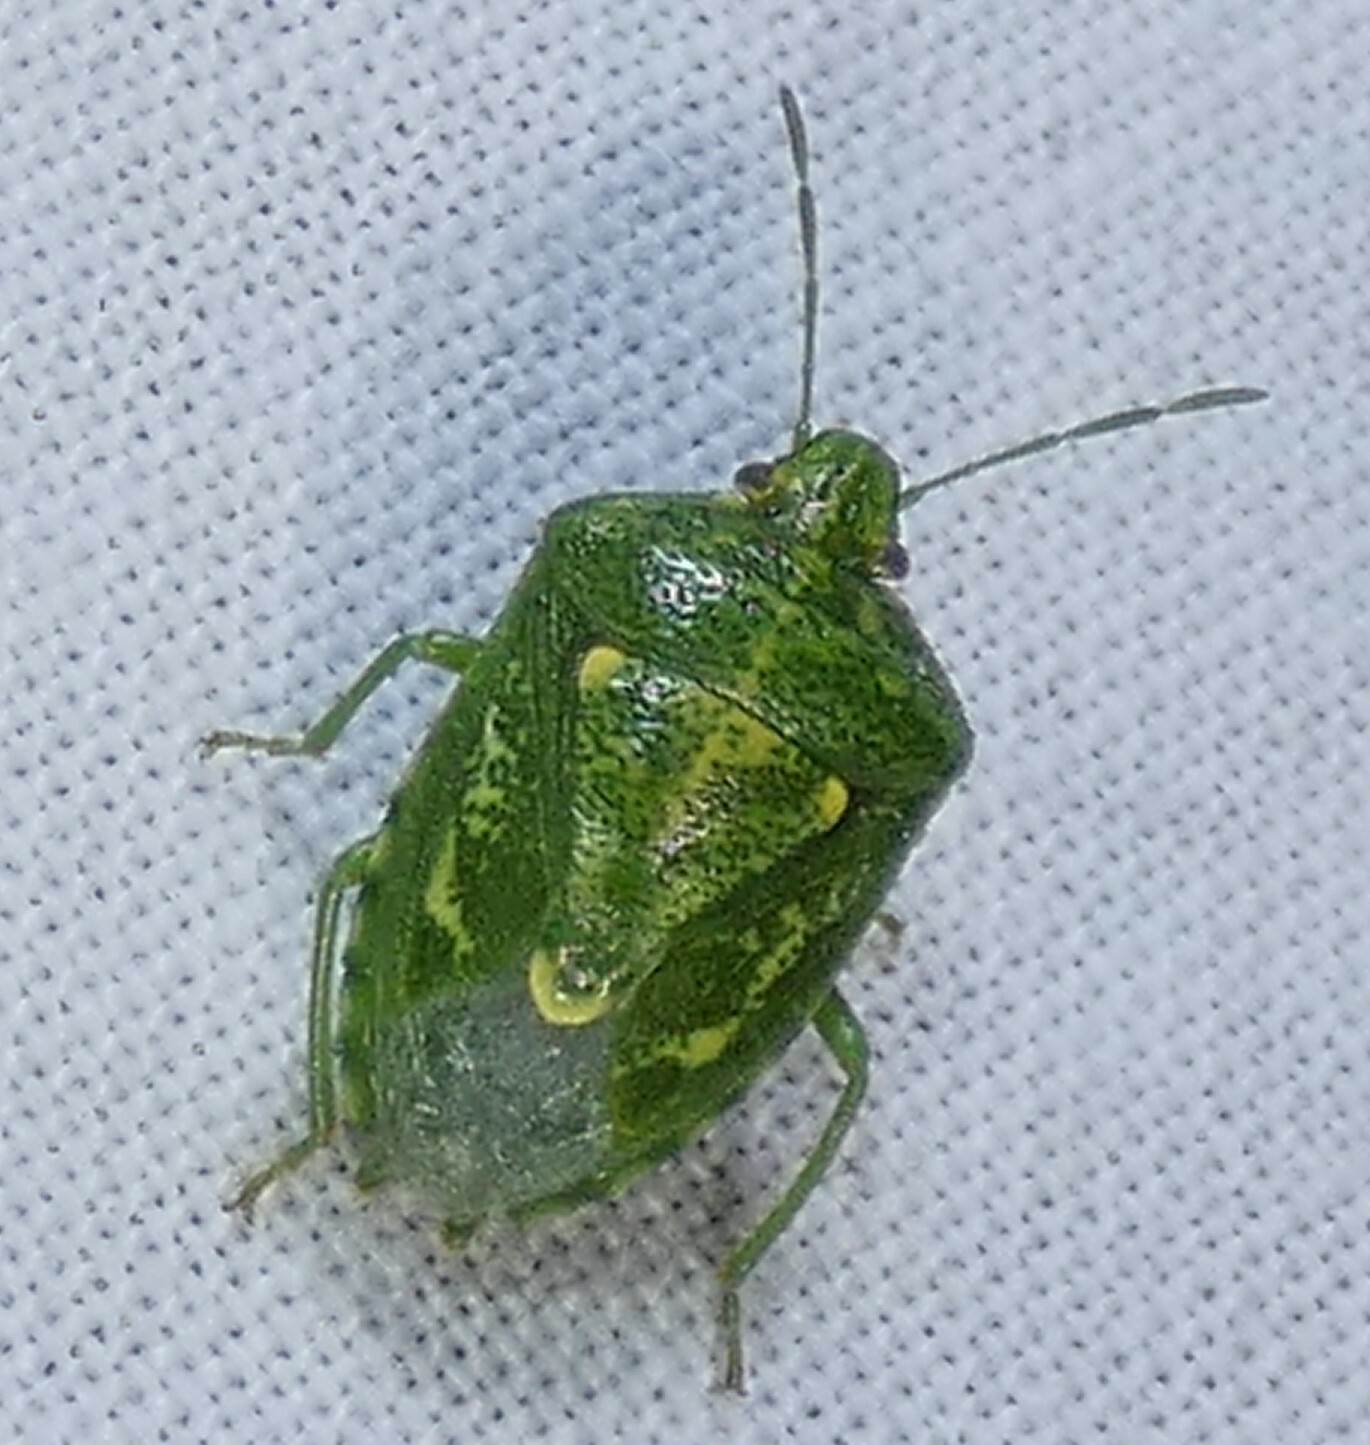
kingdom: Animalia
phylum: Arthropoda
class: Insecta
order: Hemiptera
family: Pentatomidae
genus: Banasa
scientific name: Banasa euchlora
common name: Cedar berry bug
